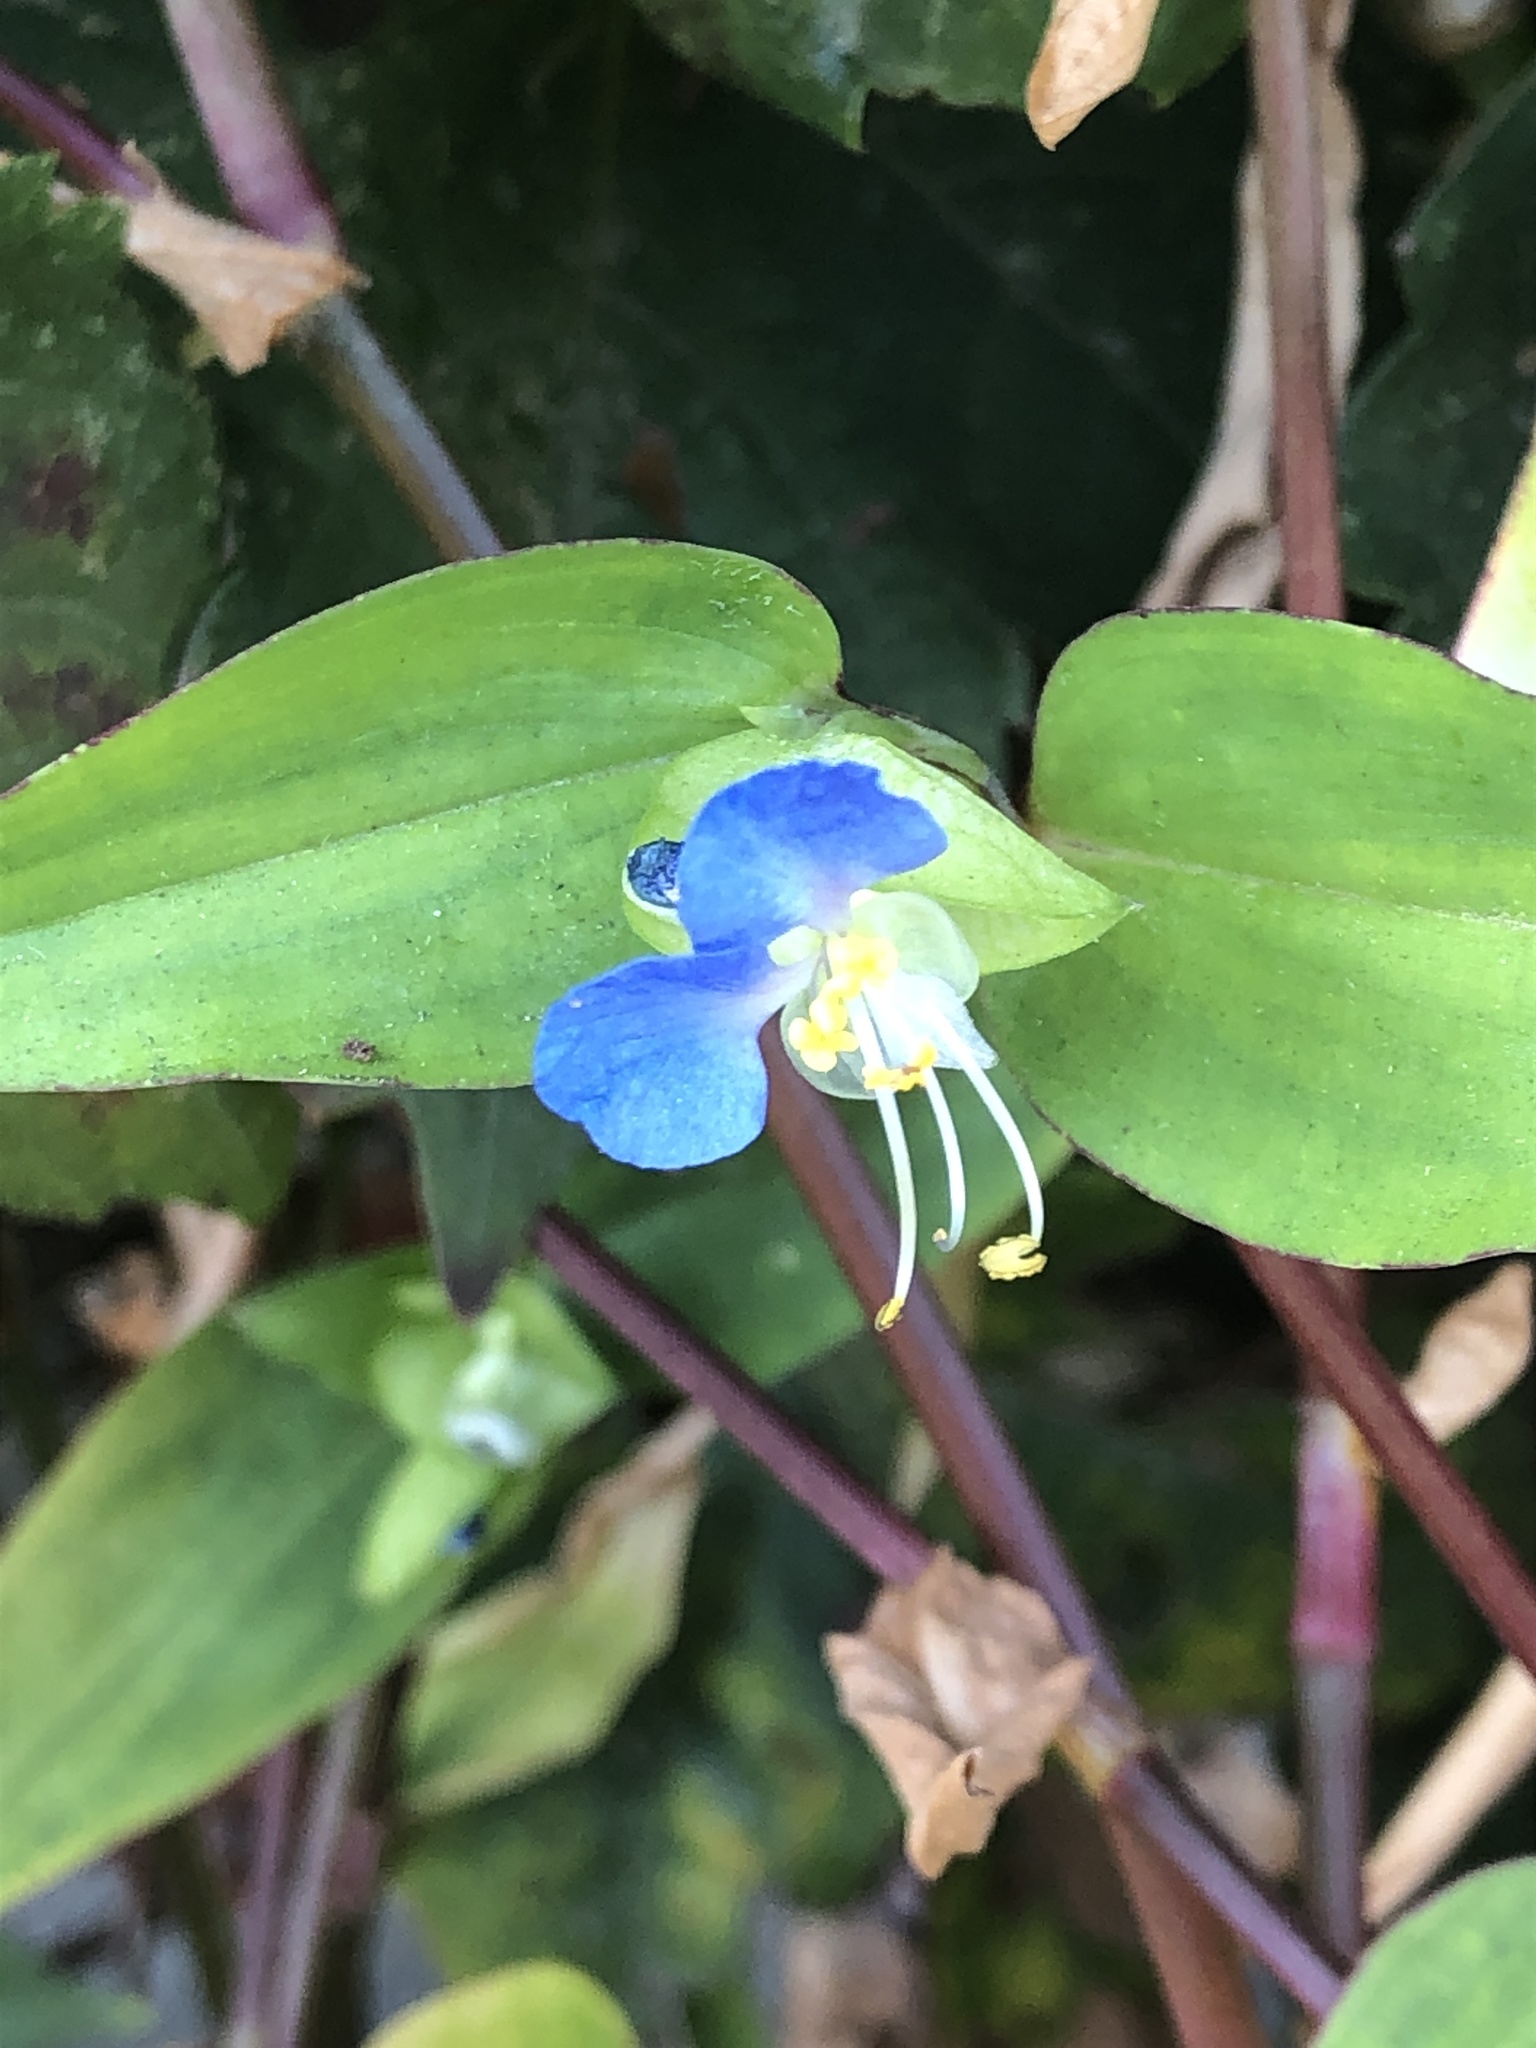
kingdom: Plantae
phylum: Tracheophyta
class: Liliopsida
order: Commelinales
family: Commelinaceae
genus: Commelina
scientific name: Commelina communis
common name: Asiatic dayflower
